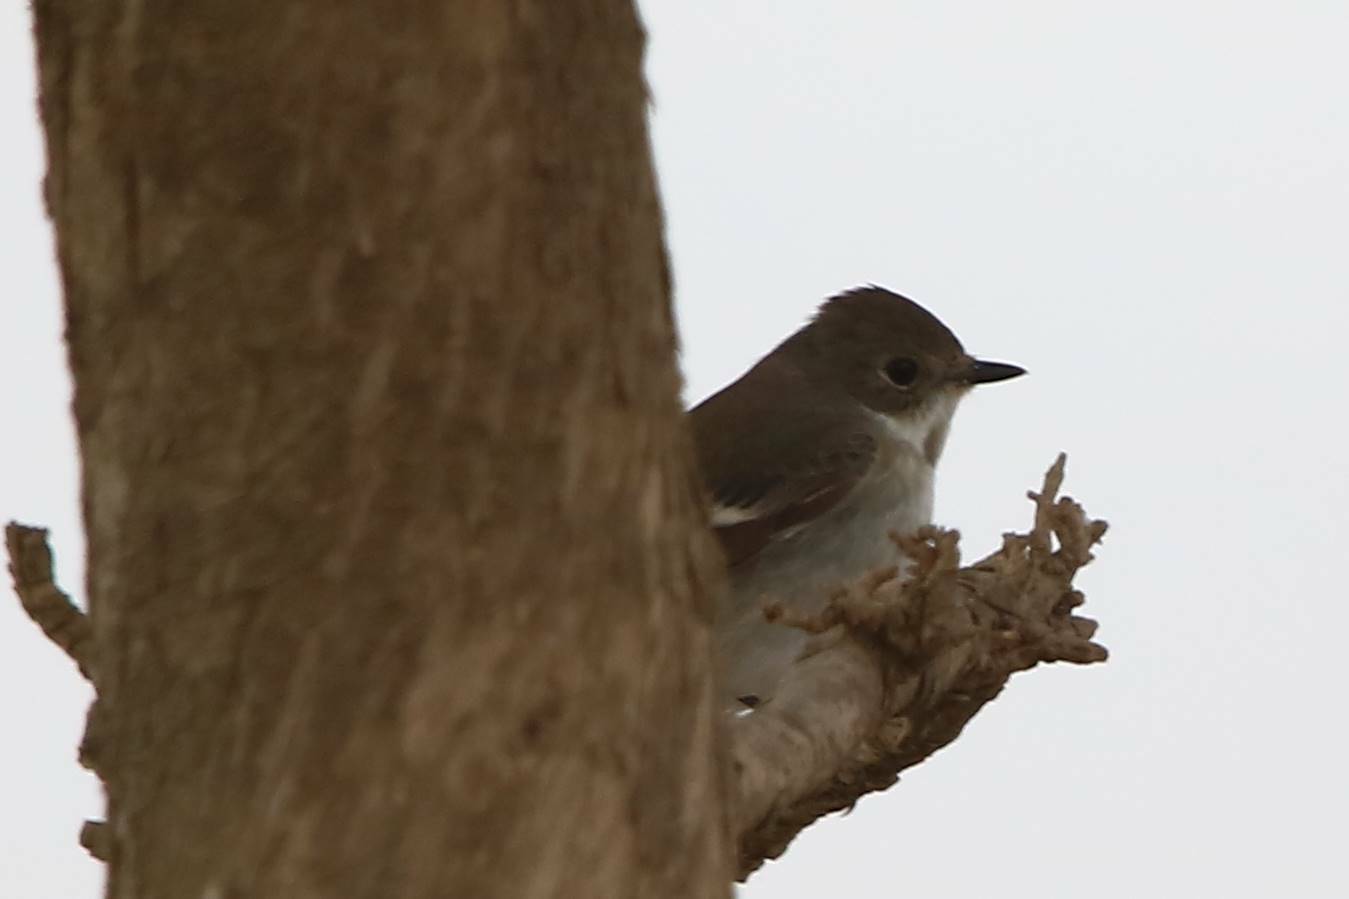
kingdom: Animalia
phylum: Chordata
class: Aves
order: Passeriformes
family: Muscicapidae
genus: Ficedula
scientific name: Ficedula hypoleuca
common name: European pied flycatcher
